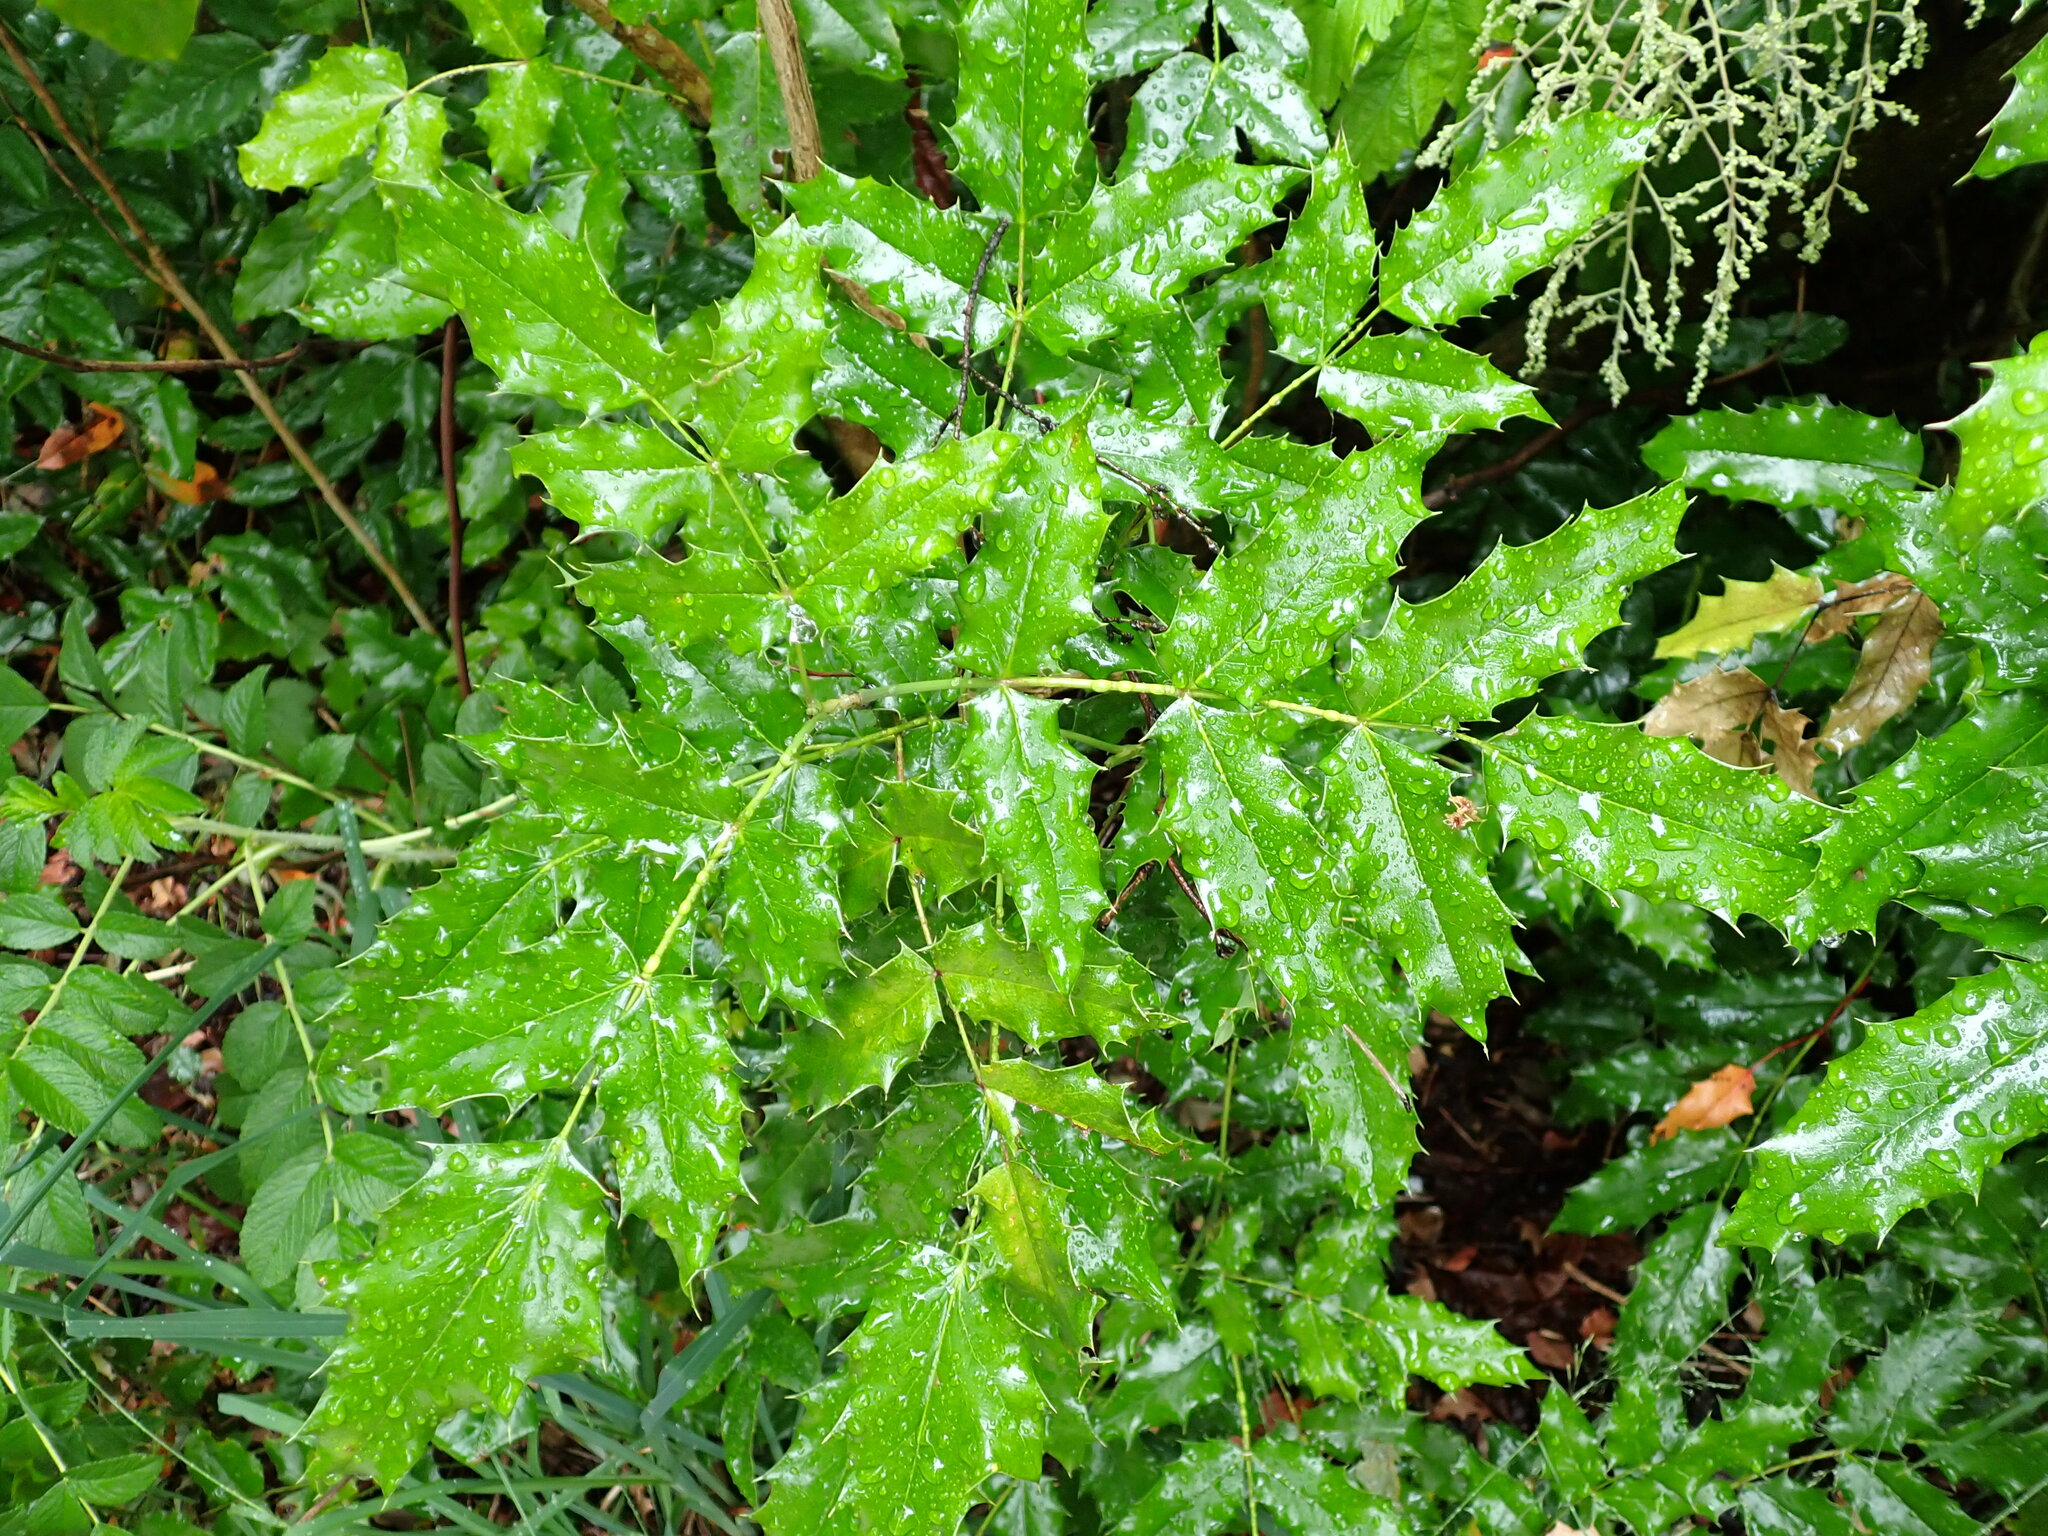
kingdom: Plantae
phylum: Tracheophyta
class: Magnoliopsida
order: Ranunculales
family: Berberidaceae
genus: Mahonia
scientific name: Mahonia aquifolium
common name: Oregon-grape
